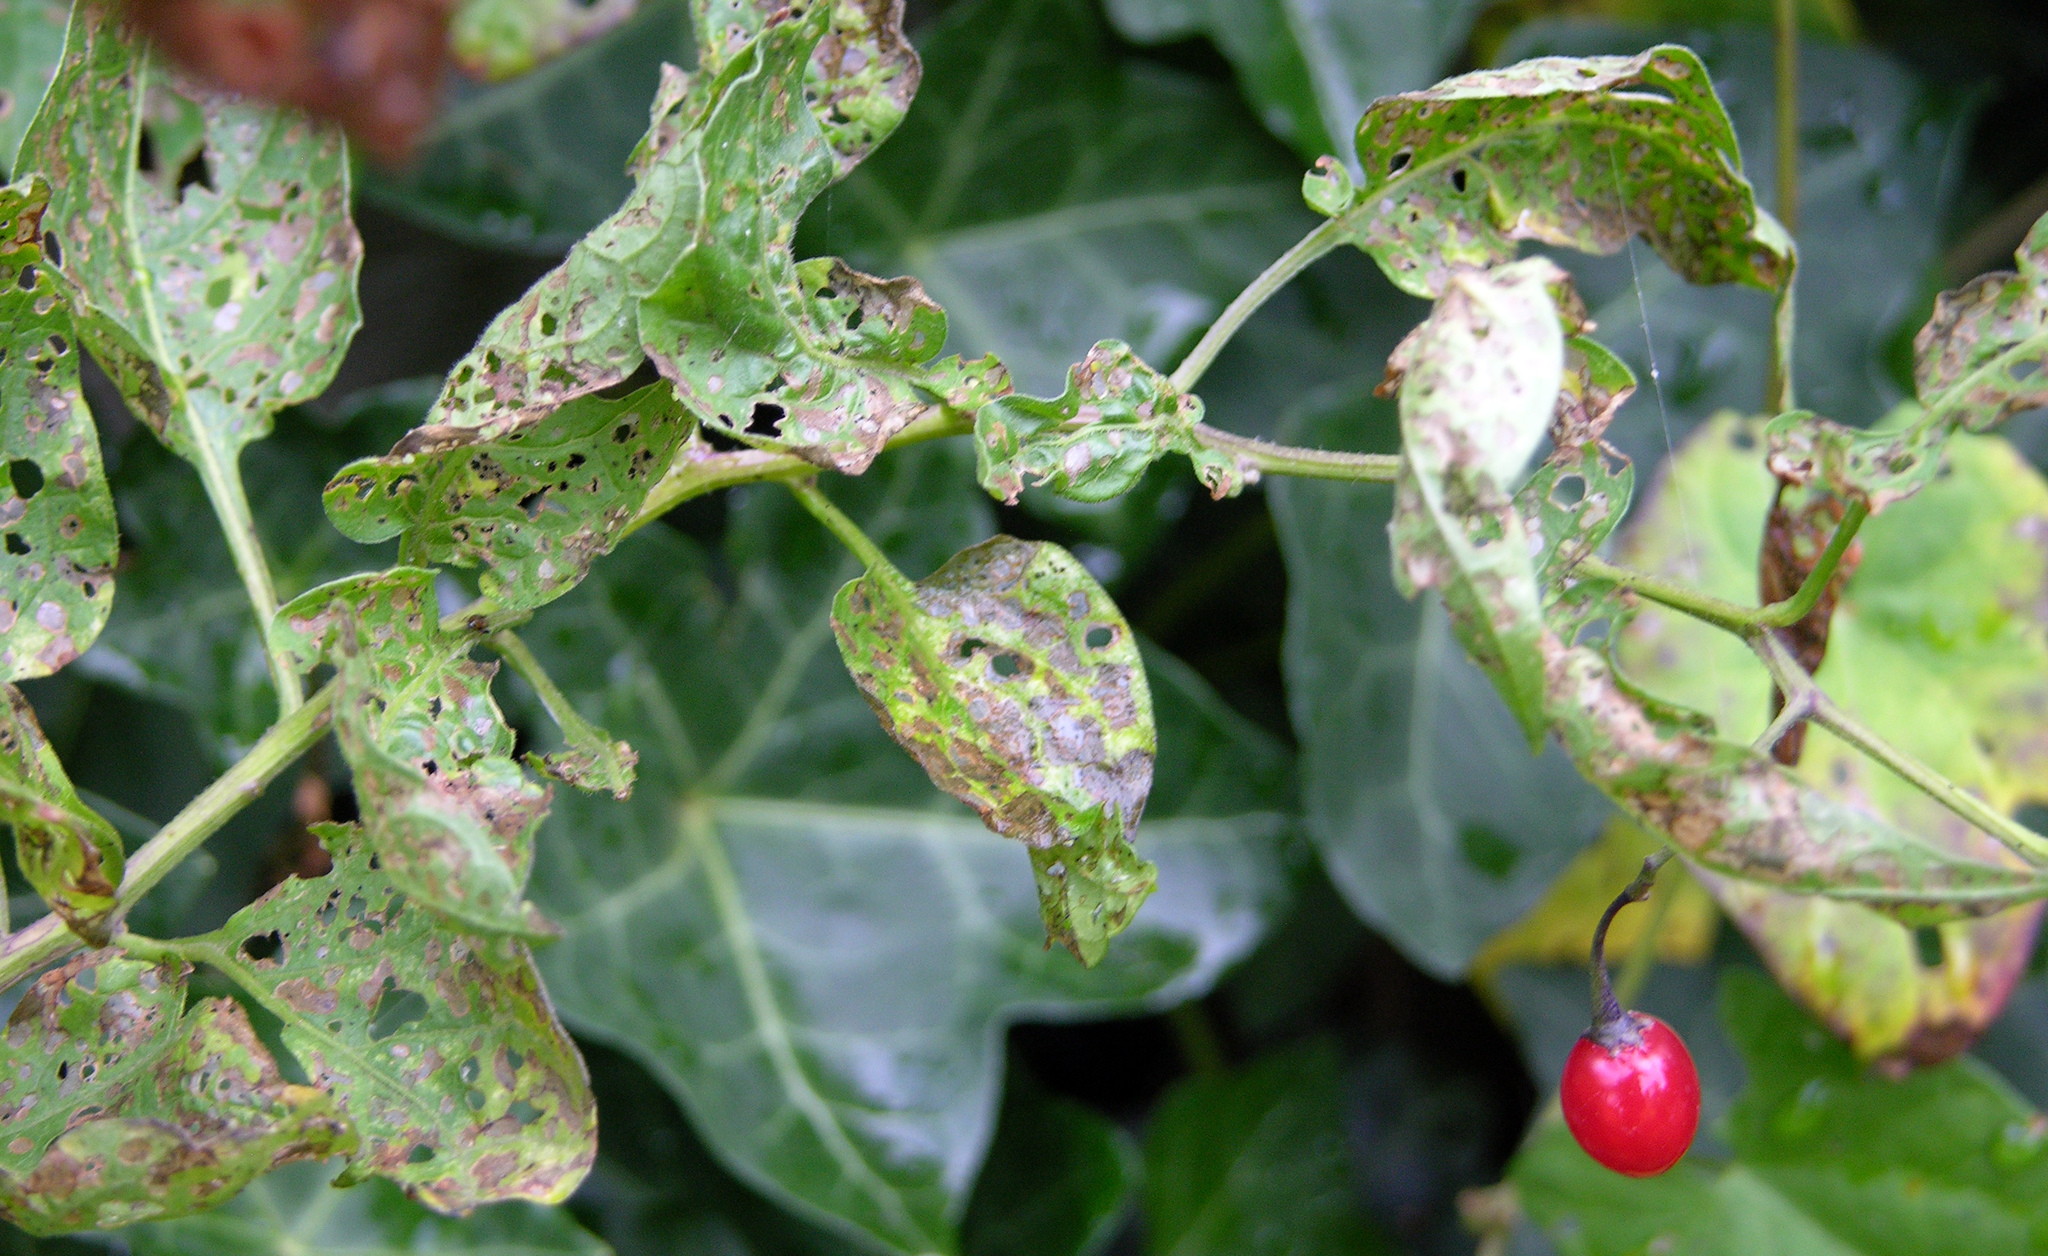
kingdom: Plantae
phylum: Tracheophyta
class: Magnoliopsida
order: Solanales
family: Solanaceae
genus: Solanum
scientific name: Solanum dulcamara
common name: Climbing nightshade
